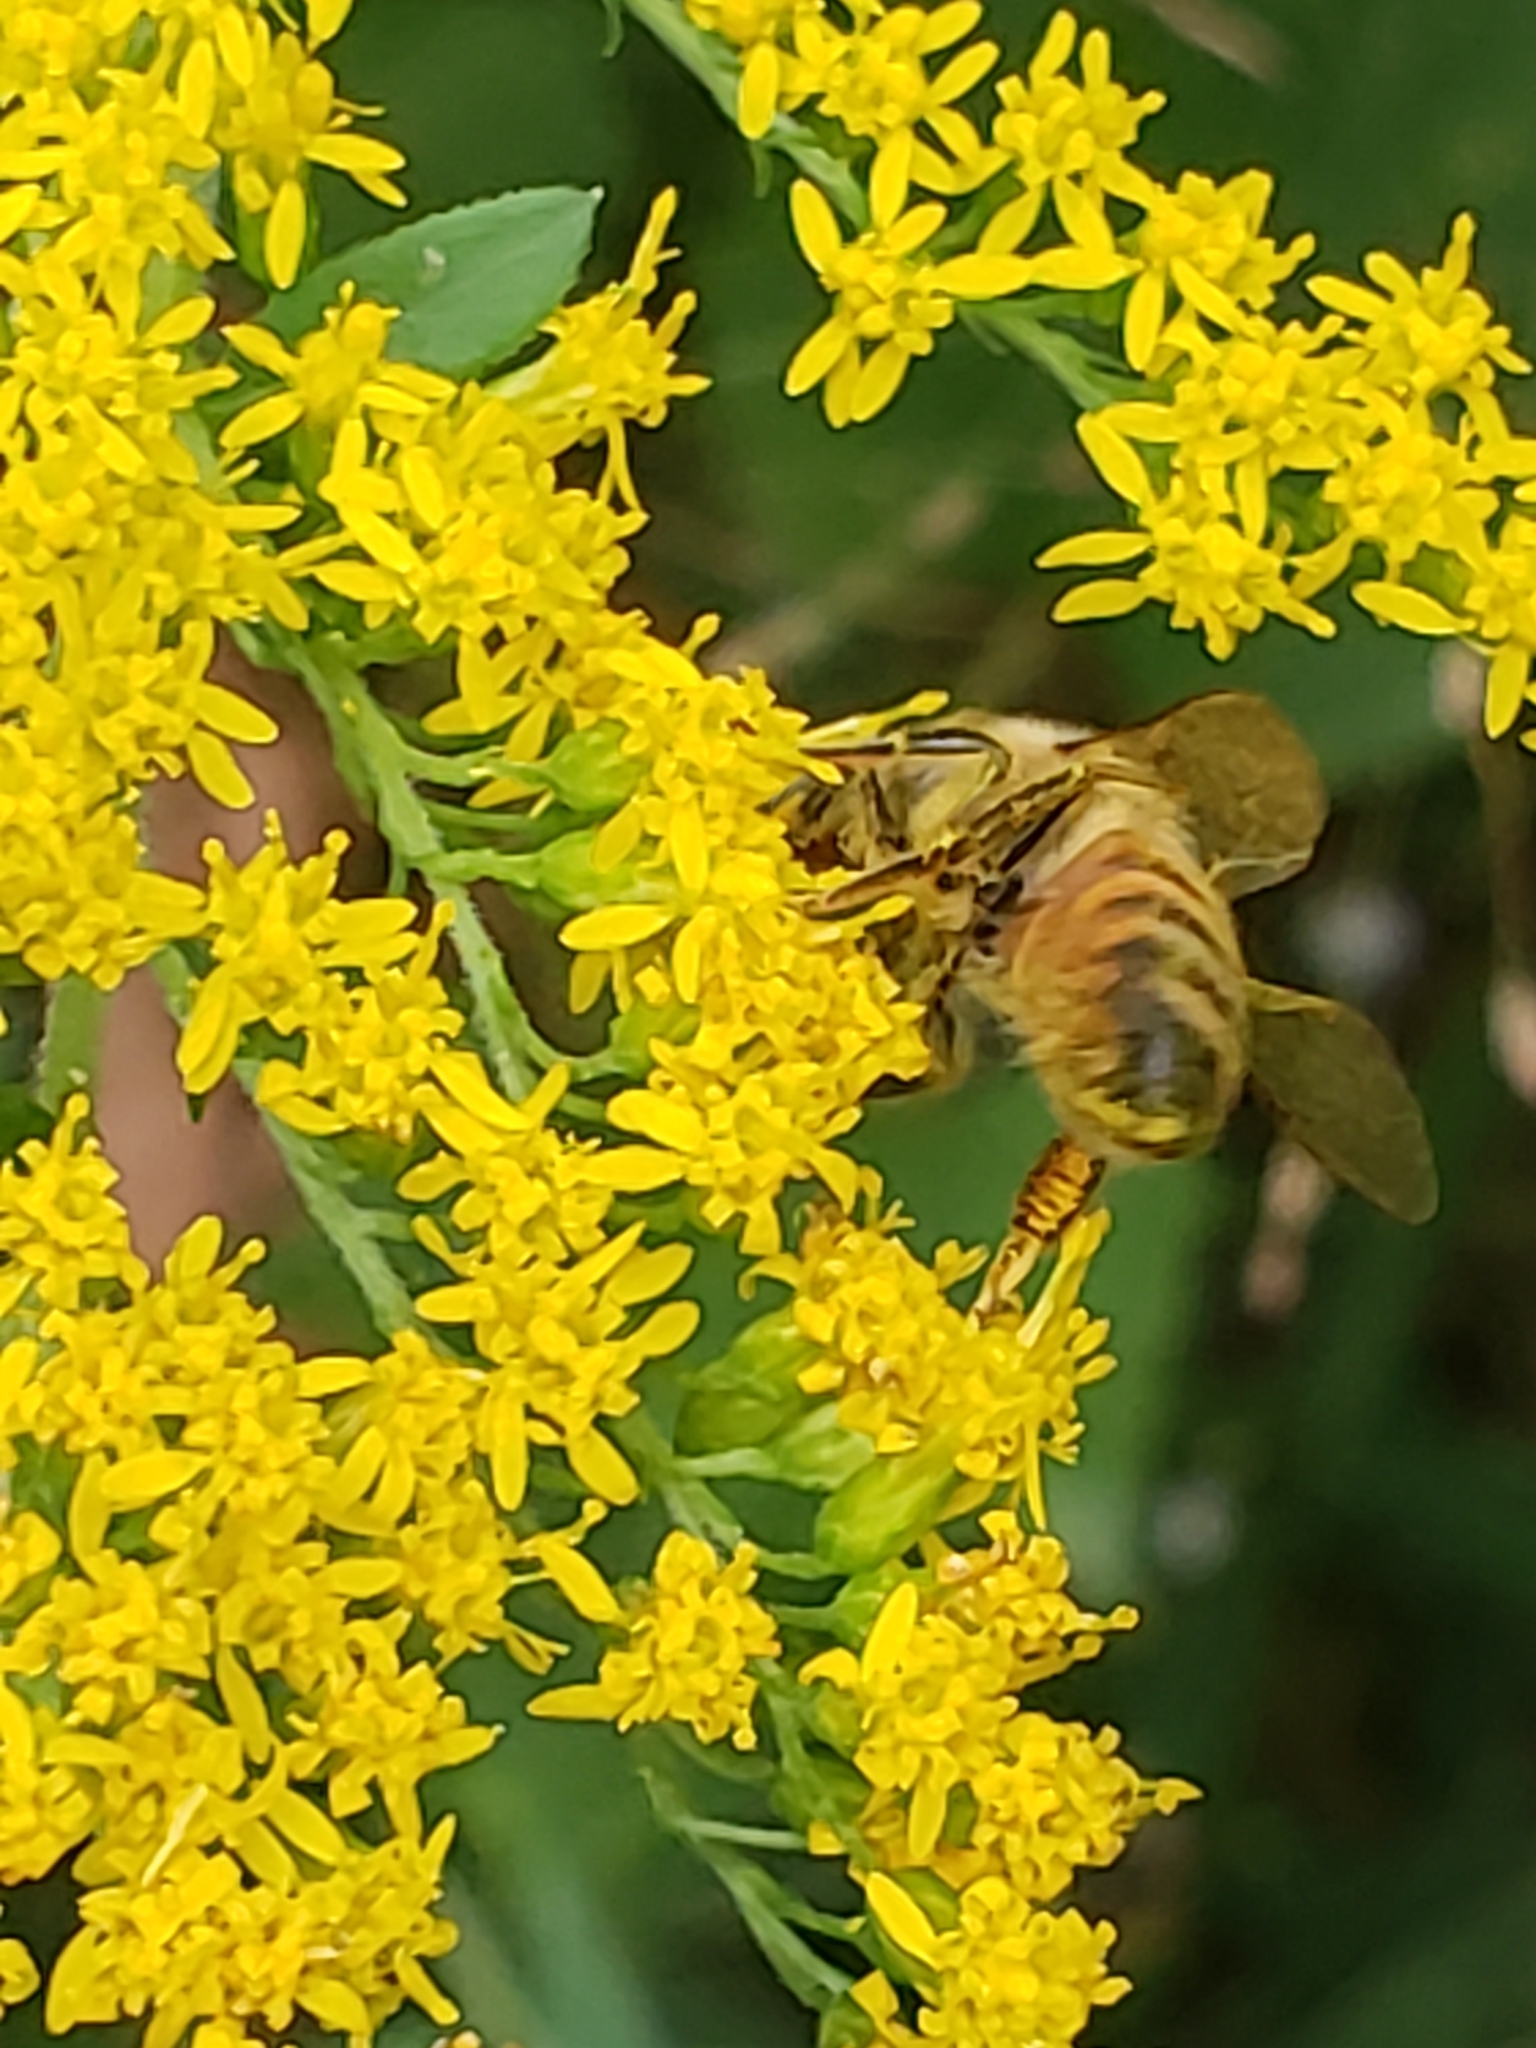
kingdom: Animalia
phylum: Arthropoda
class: Insecta
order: Hymenoptera
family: Apidae
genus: Apis
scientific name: Apis mellifera
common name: Honey bee
